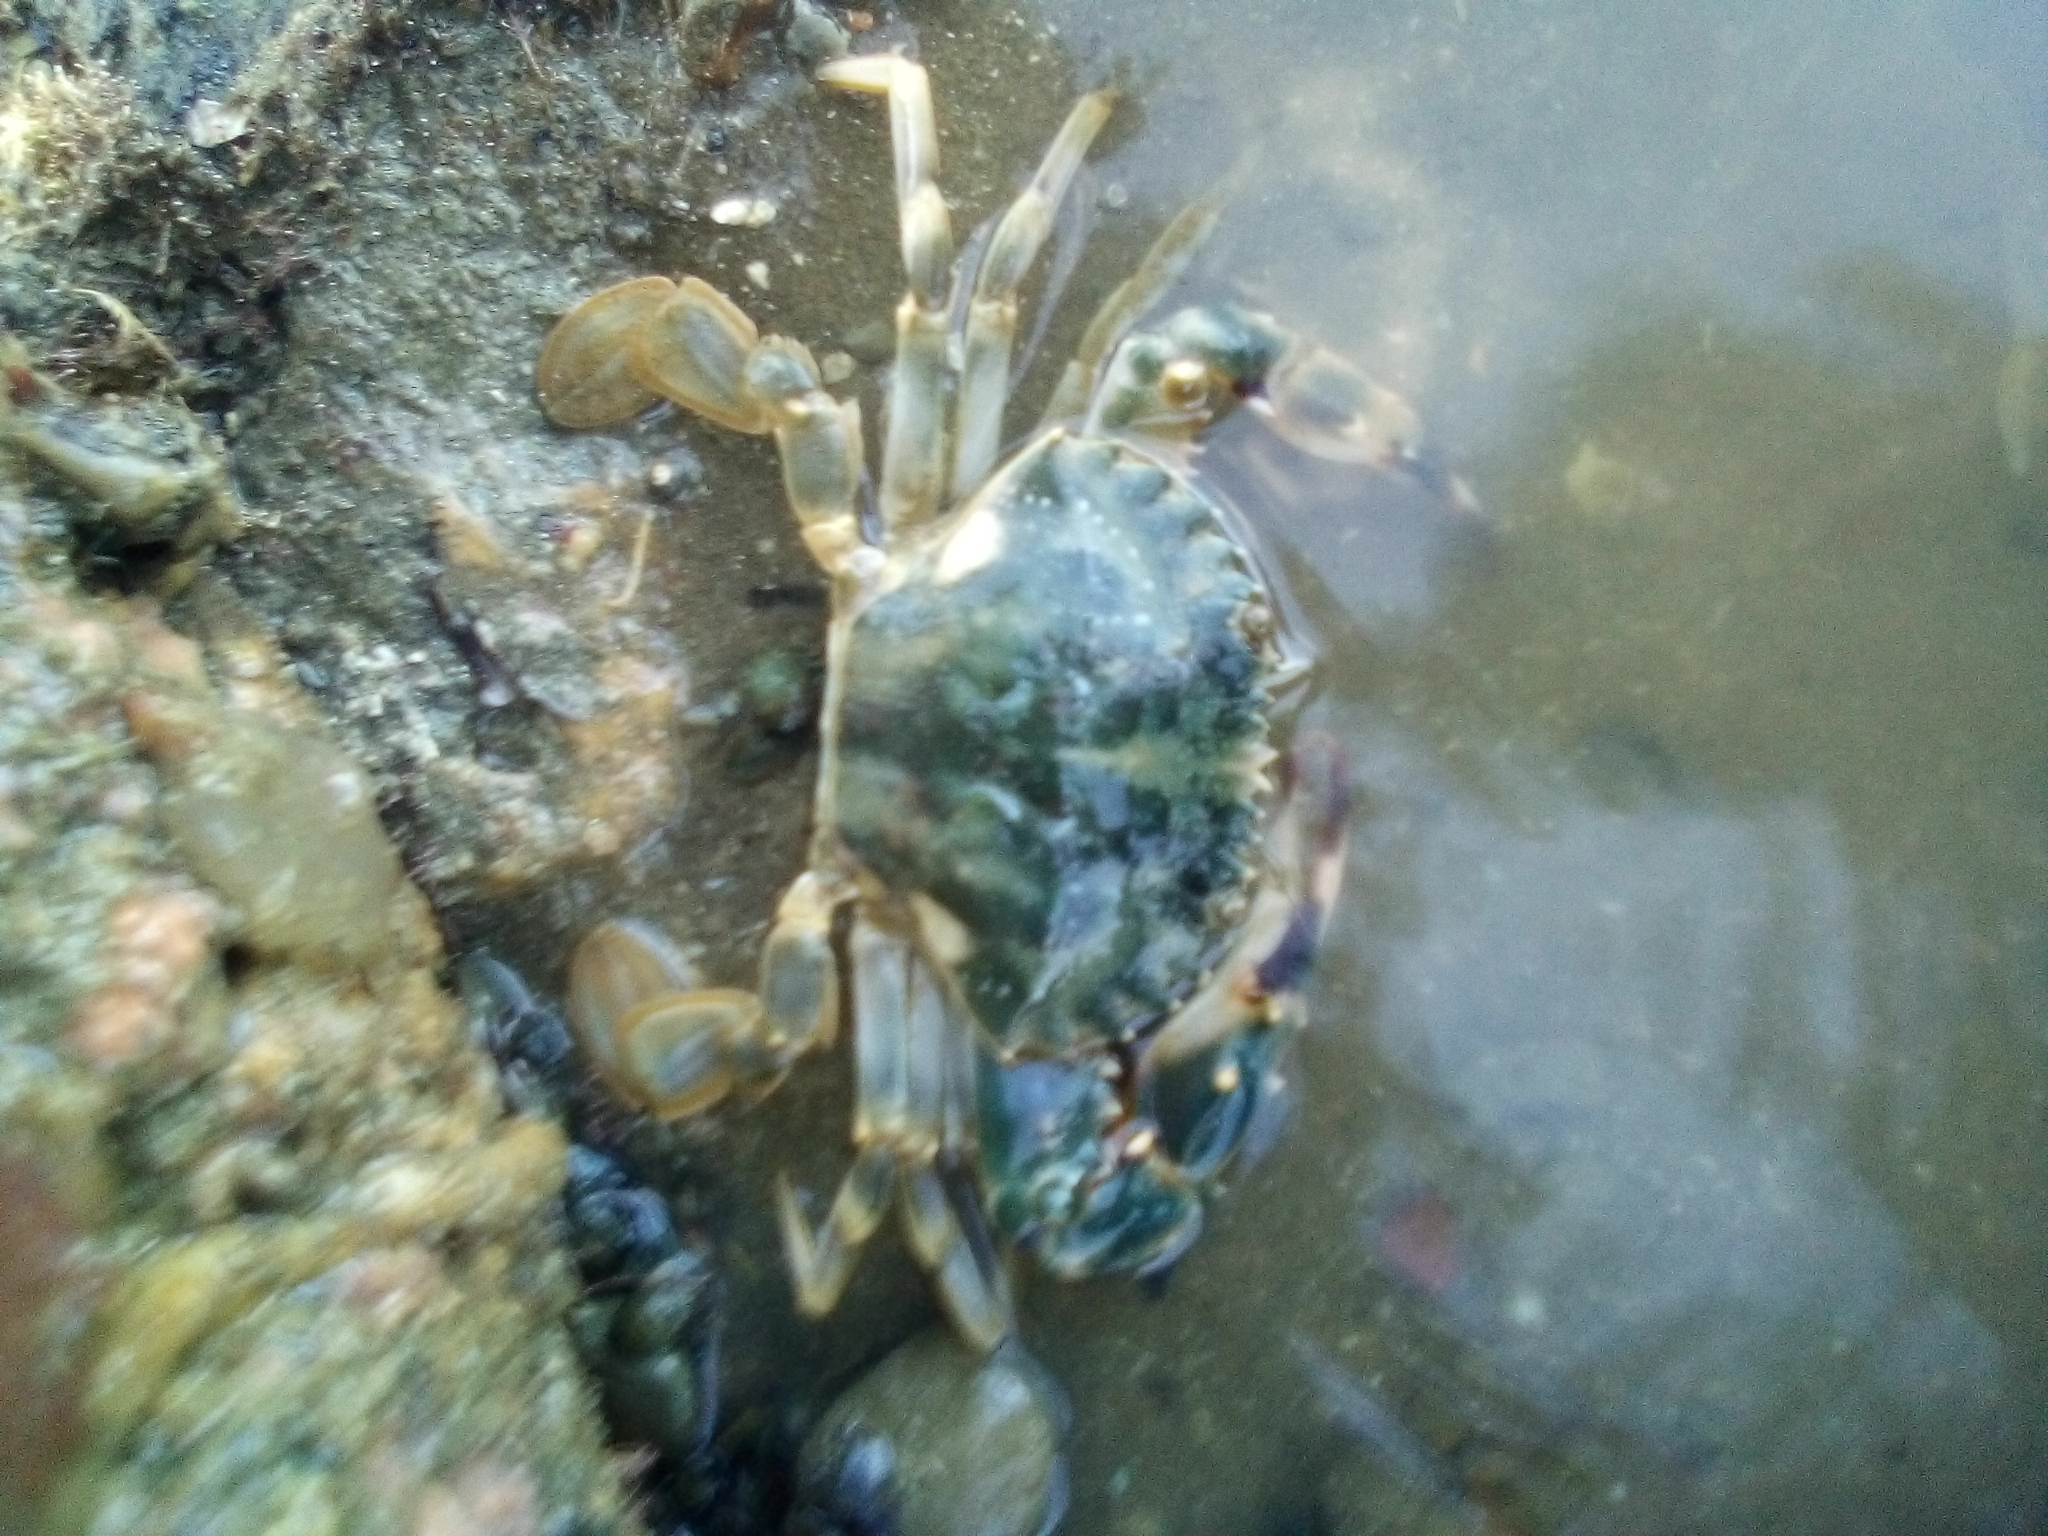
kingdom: Animalia
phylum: Arthropoda
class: Malacostraca
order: Decapoda
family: Portunidae
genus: Charybdis
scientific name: Charybdis japonica
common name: Asian paddle crab
